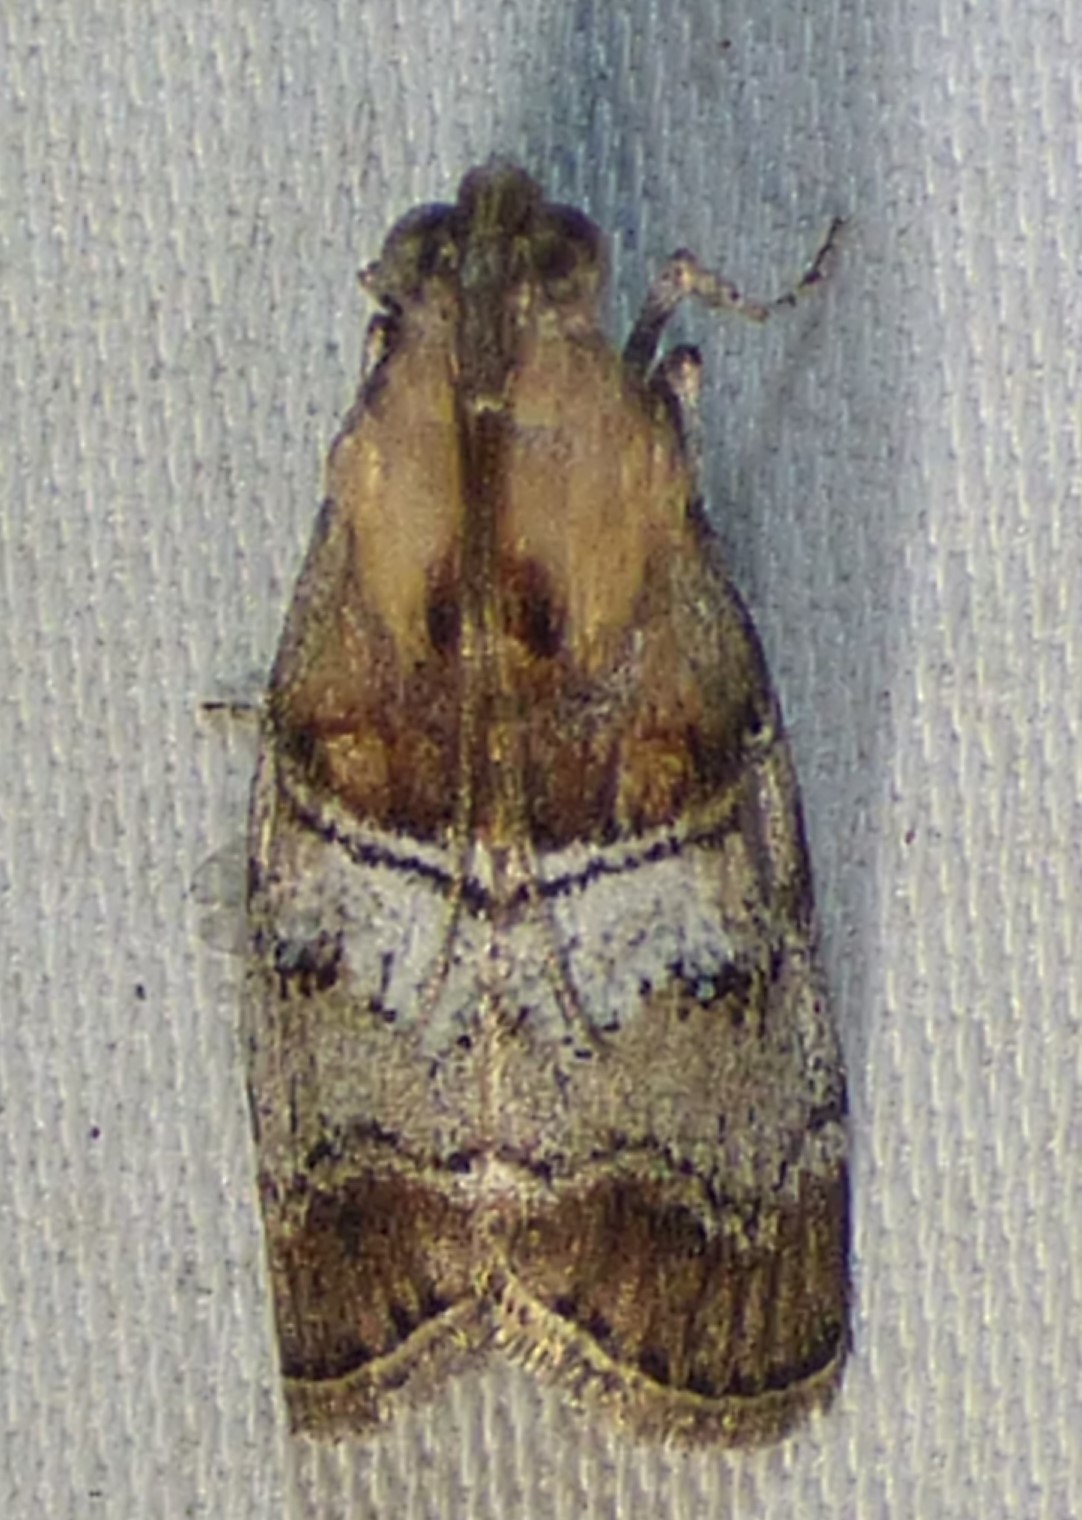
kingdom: Animalia
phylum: Arthropoda
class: Insecta
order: Lepidoptera
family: Pyralidae
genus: Pococera
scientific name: Pococera maritimalis
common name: Gray-banded pococera moth
